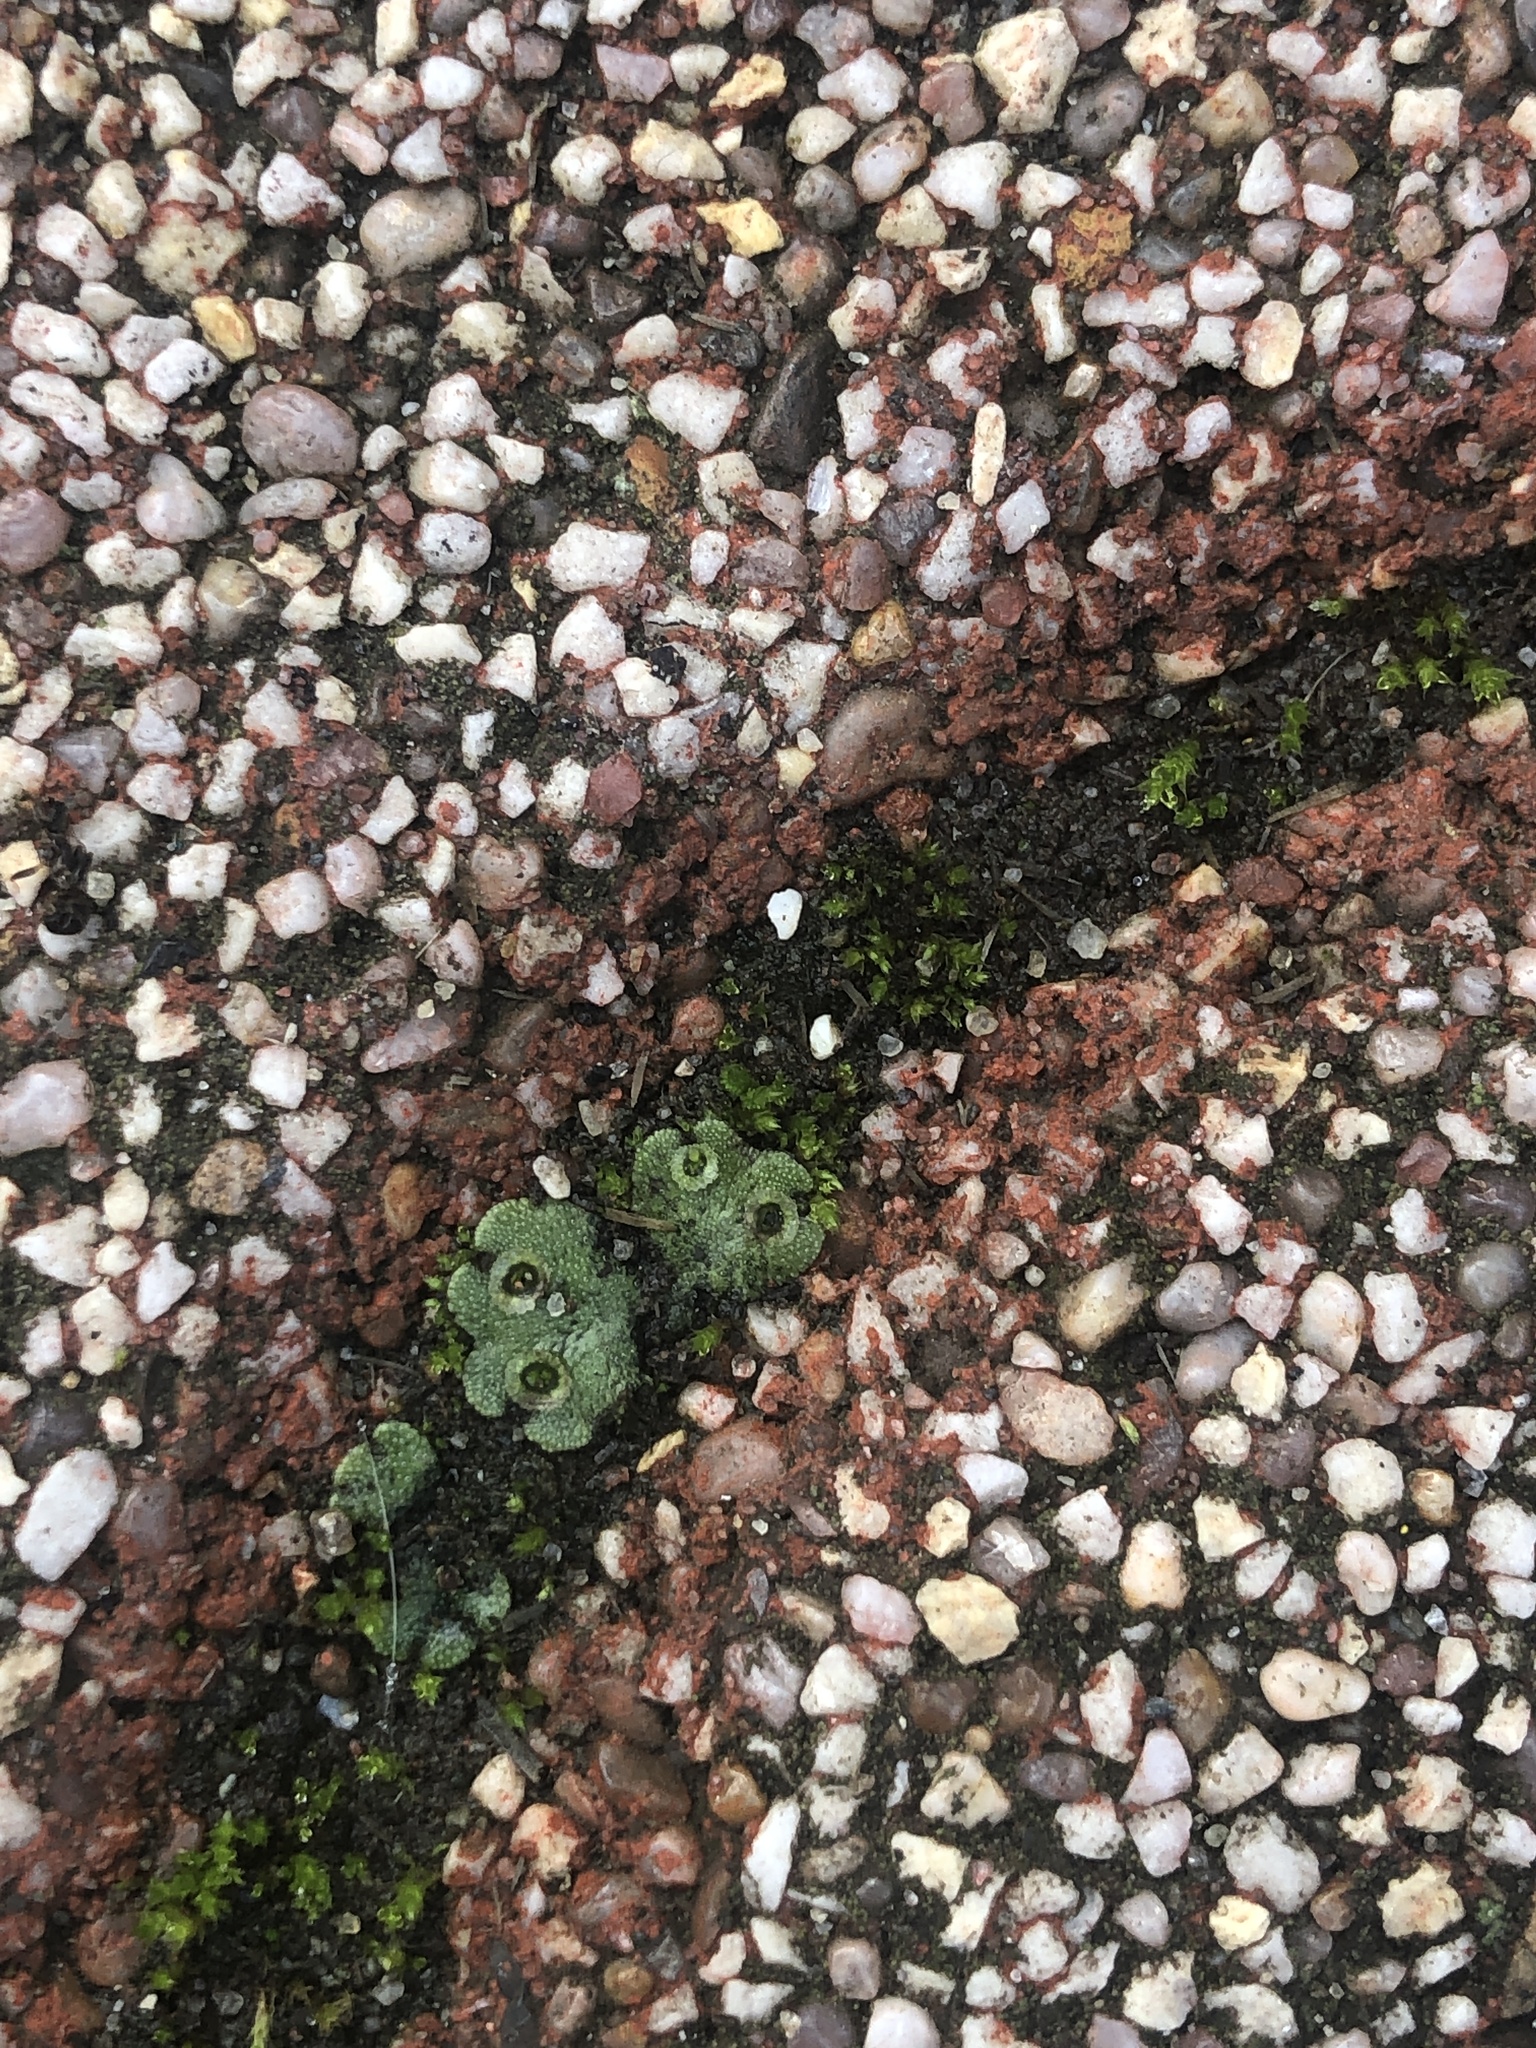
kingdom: Plantae
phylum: Marchantiophyta
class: Marchantiopsida
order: Marchantiales
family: Marchantiaceae
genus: Marchantia
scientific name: Marchantia polymorpha
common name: Common liverwort
